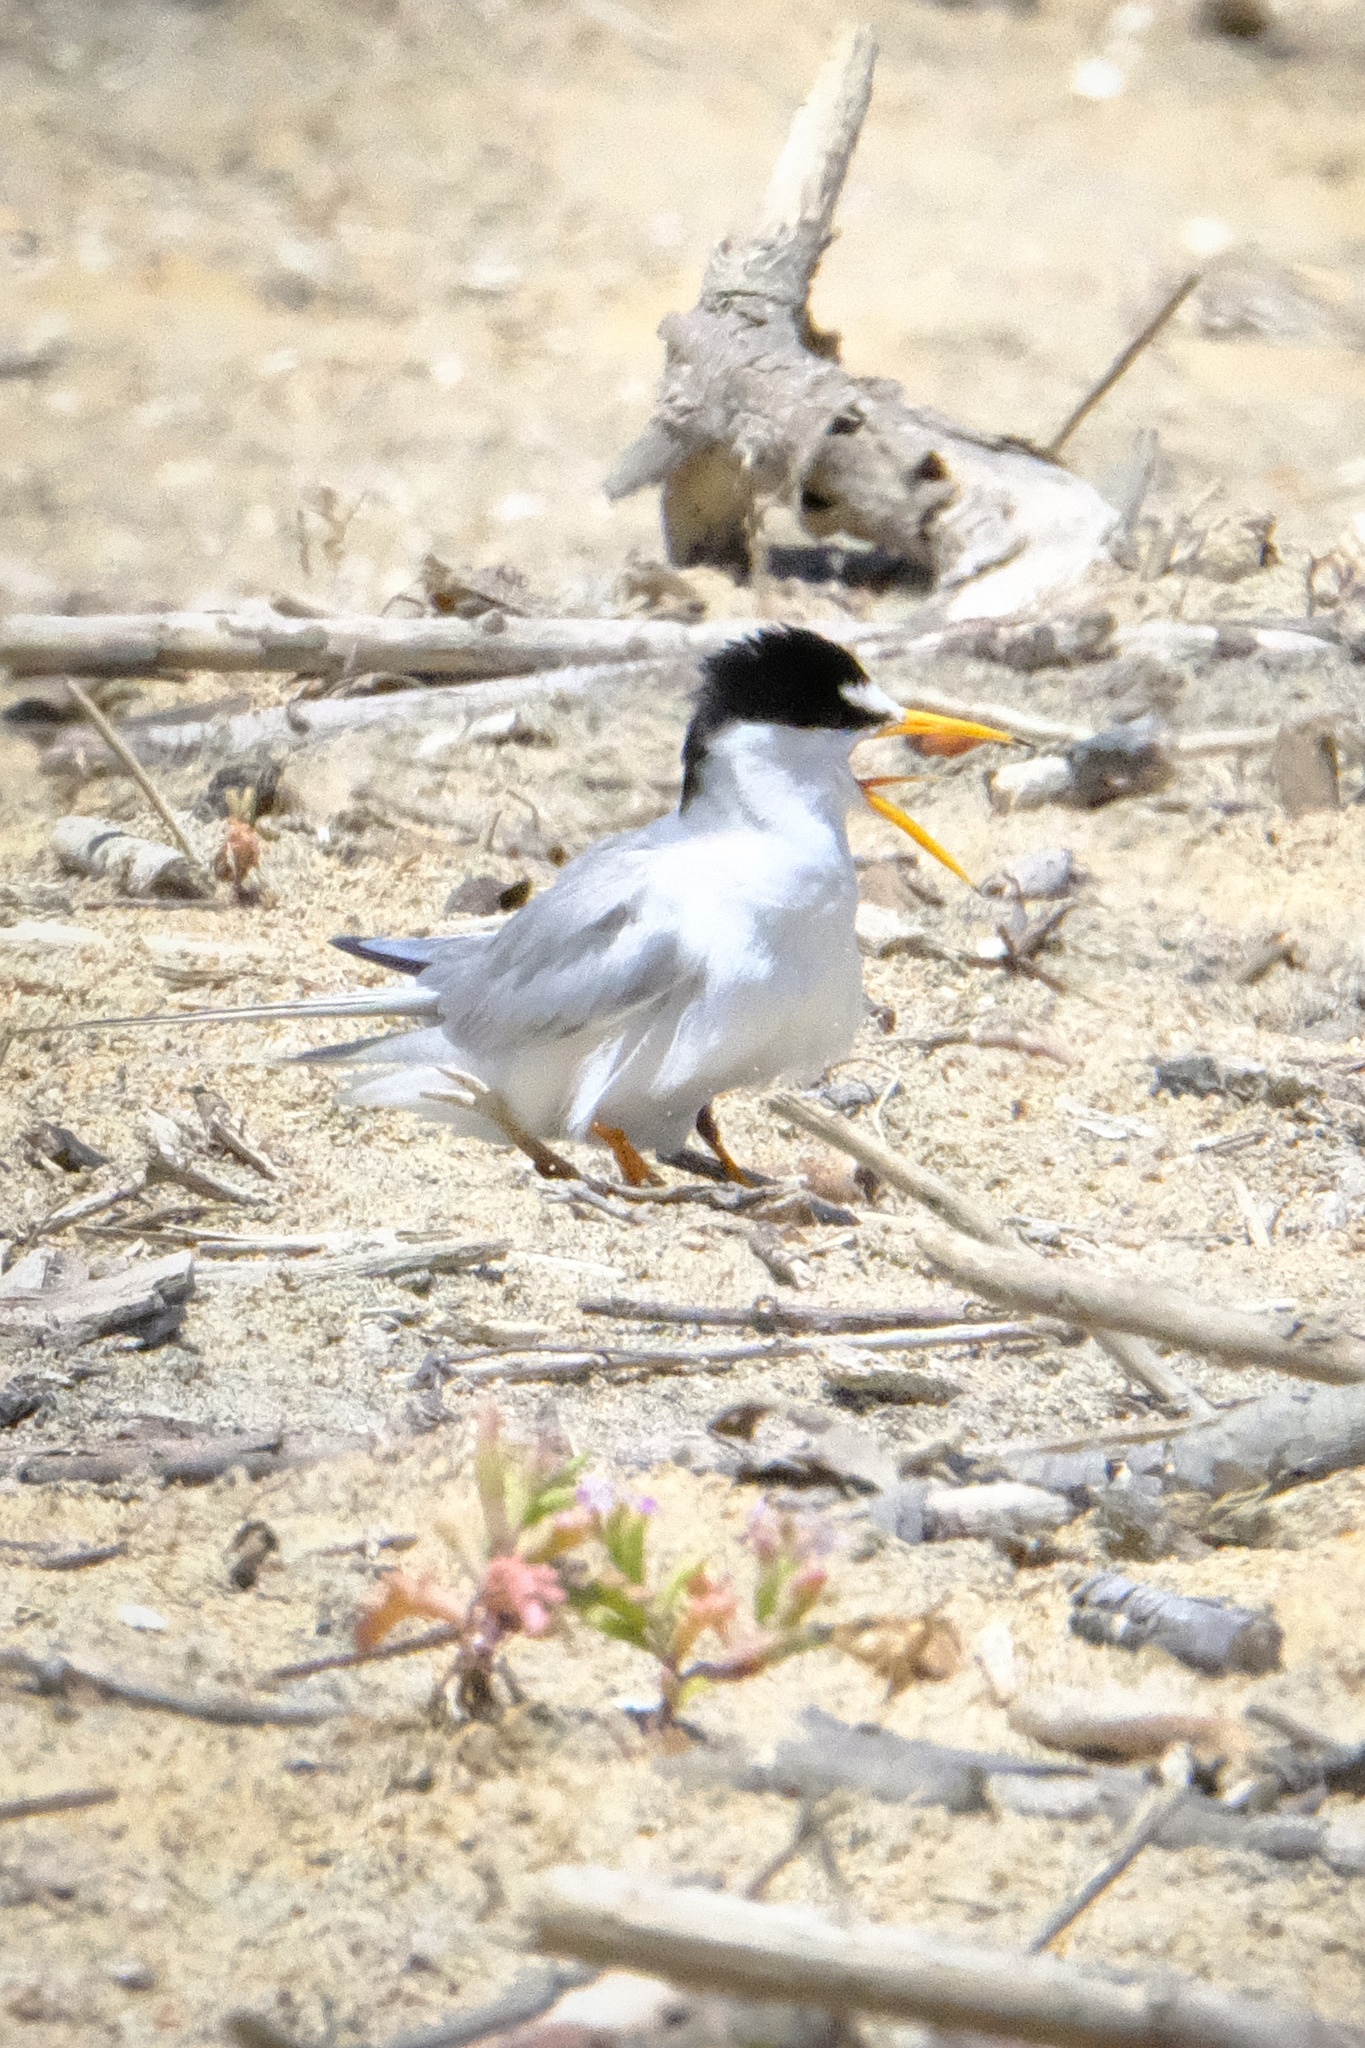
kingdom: Animalia
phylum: Chordata
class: Aves
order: Charadriiformes
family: Laridae
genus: Sternula
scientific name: Sternula antillarum
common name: Least tern
